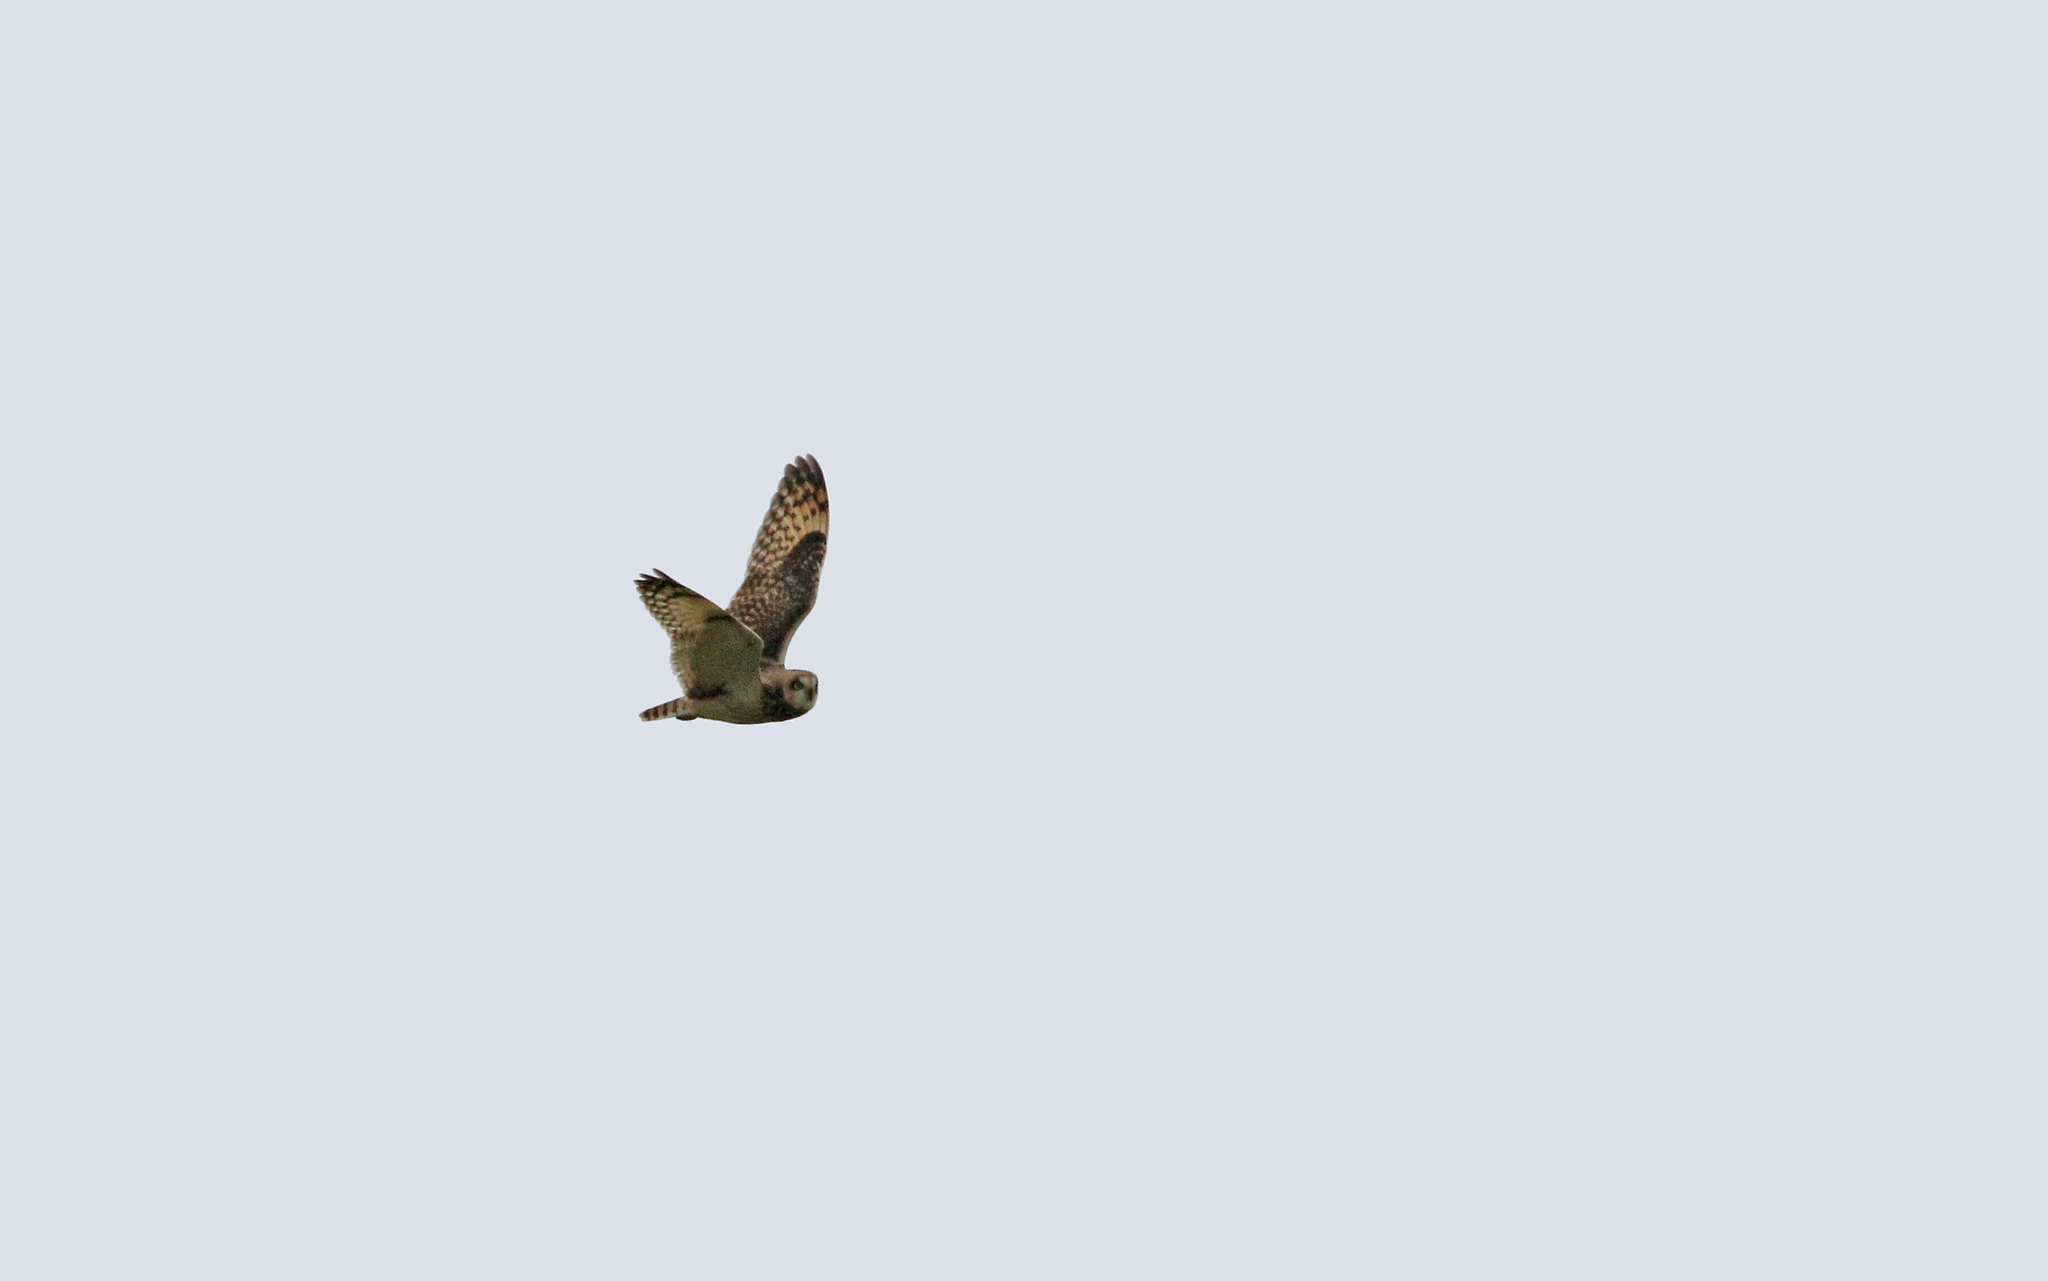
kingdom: Animalia
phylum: Chordata
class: Aves
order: Strigiformes
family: Strigidae
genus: Asio
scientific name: Asio flammeus
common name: Short-eared owl
